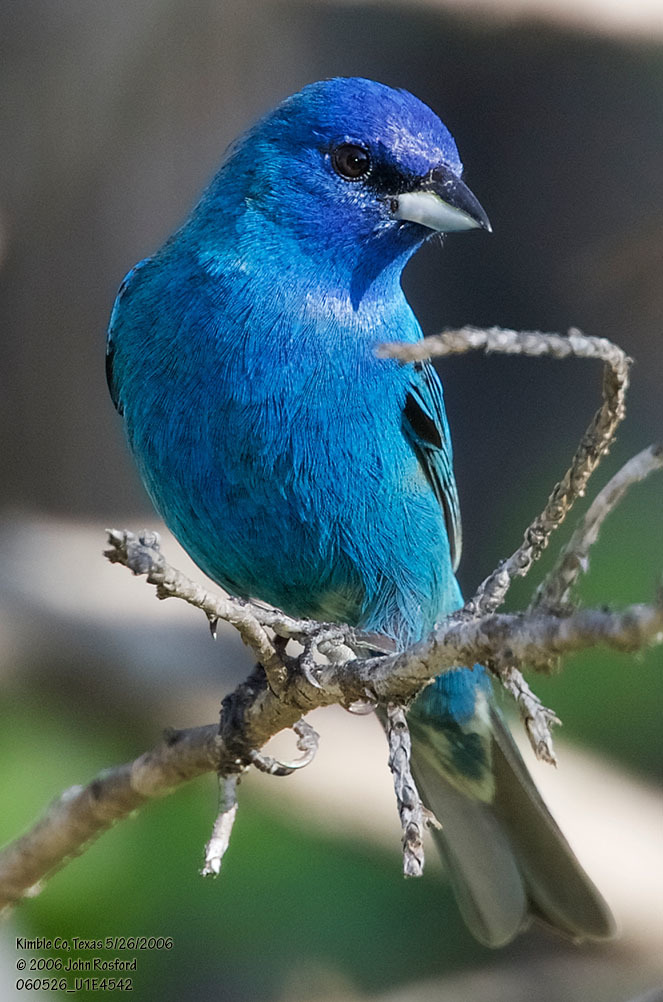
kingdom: Animalia
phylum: Chordata
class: Aves
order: Passeriformes
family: Cardinalidae
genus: Passerina
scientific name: Passerina cyanea
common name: Indigo bunting
